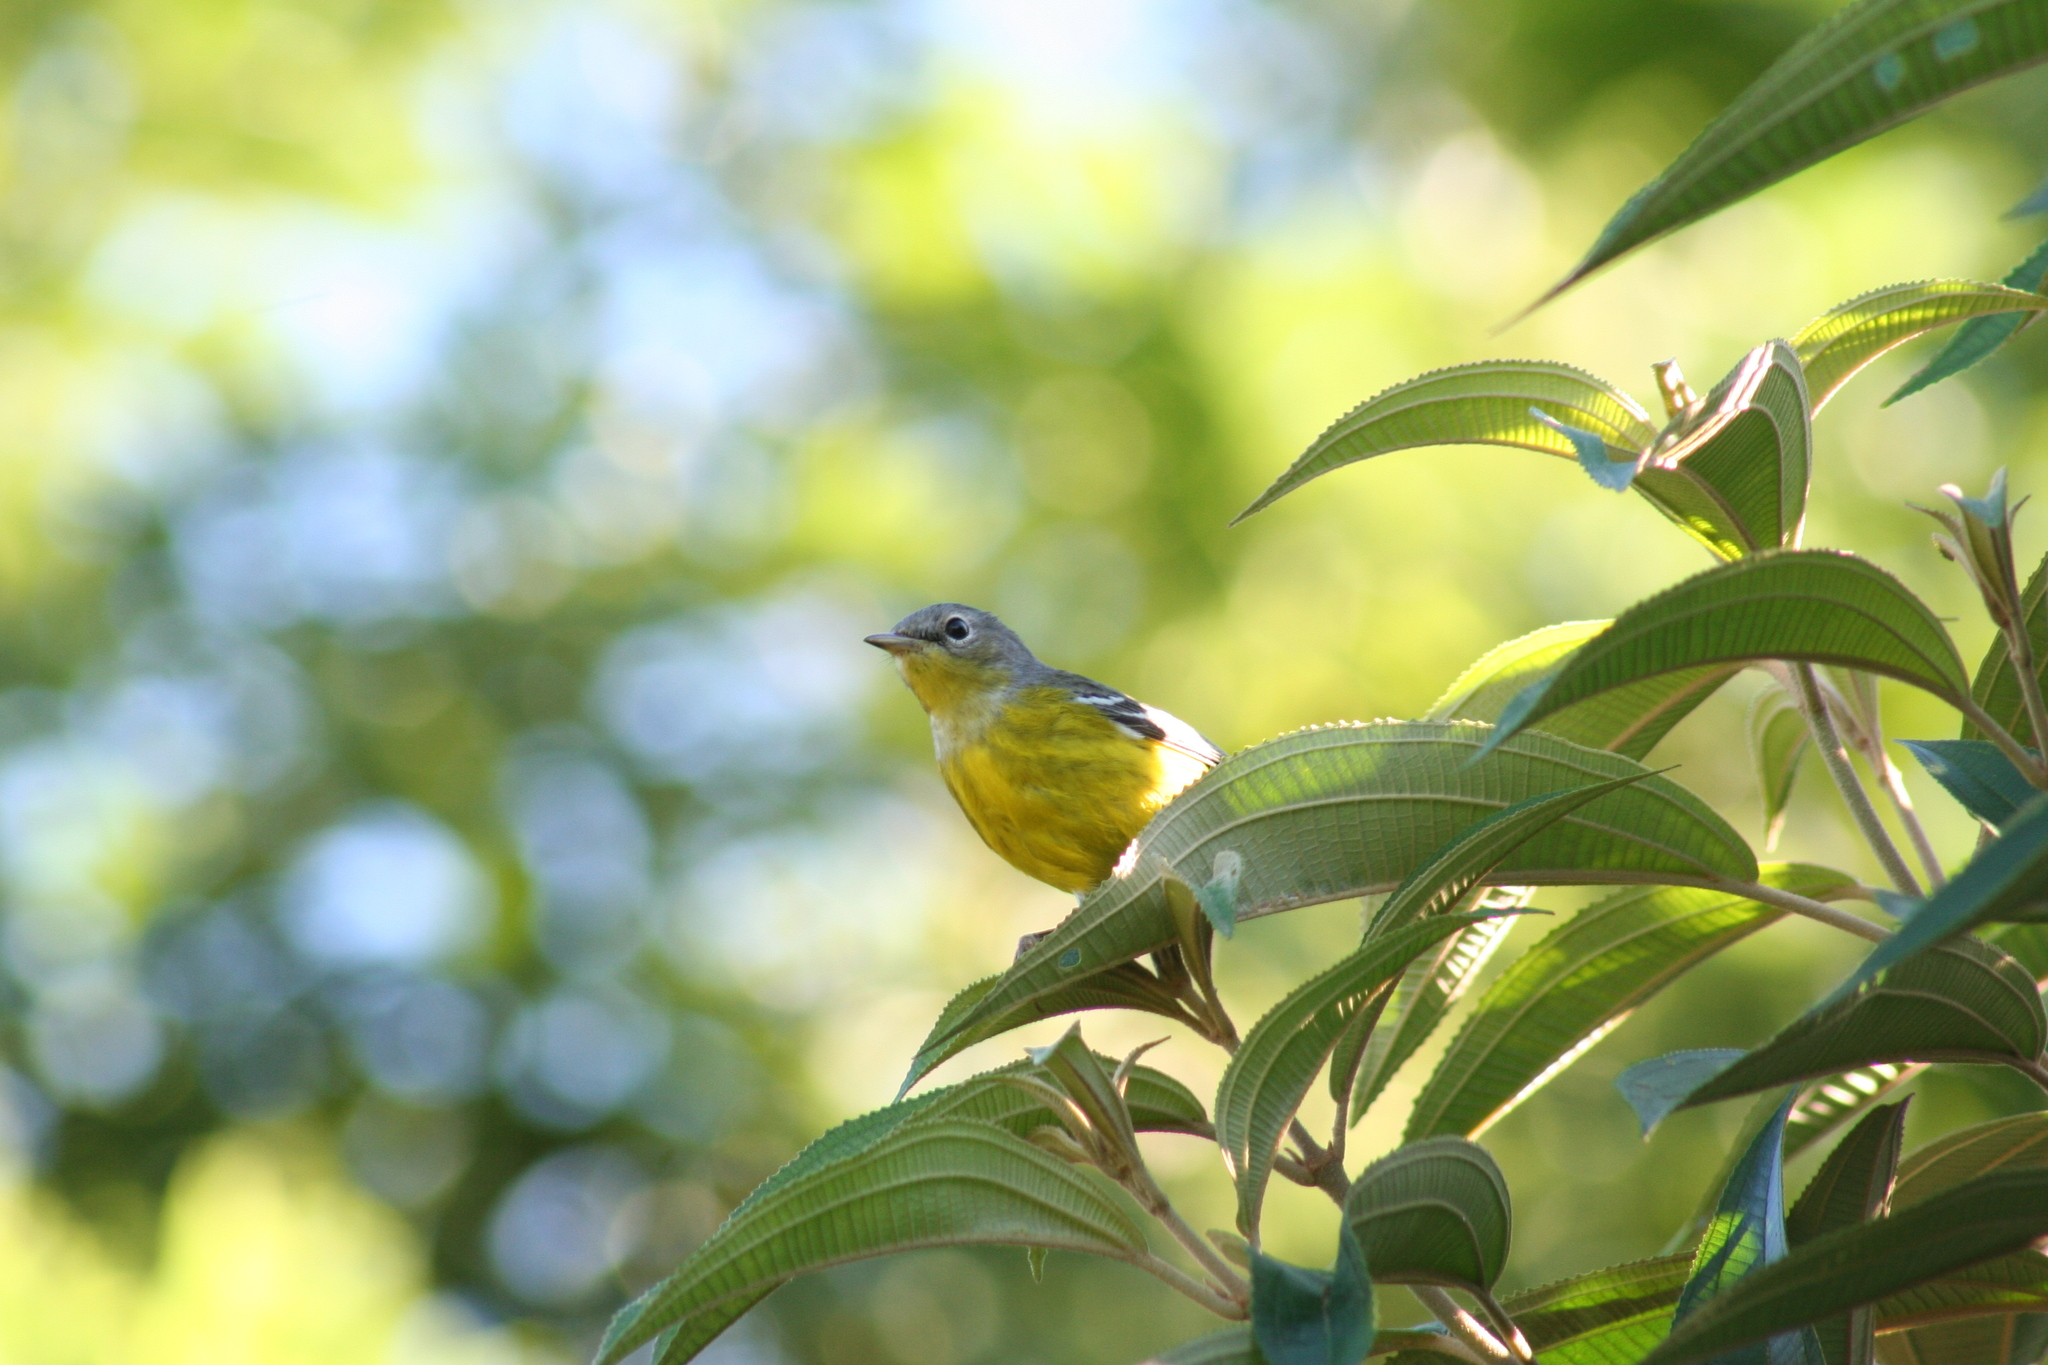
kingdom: Animalia
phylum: Chordata
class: Aves
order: Passeriformes
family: Parulidae
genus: Setophaga
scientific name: Setophaga magnolia
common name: Magnolia warbler
